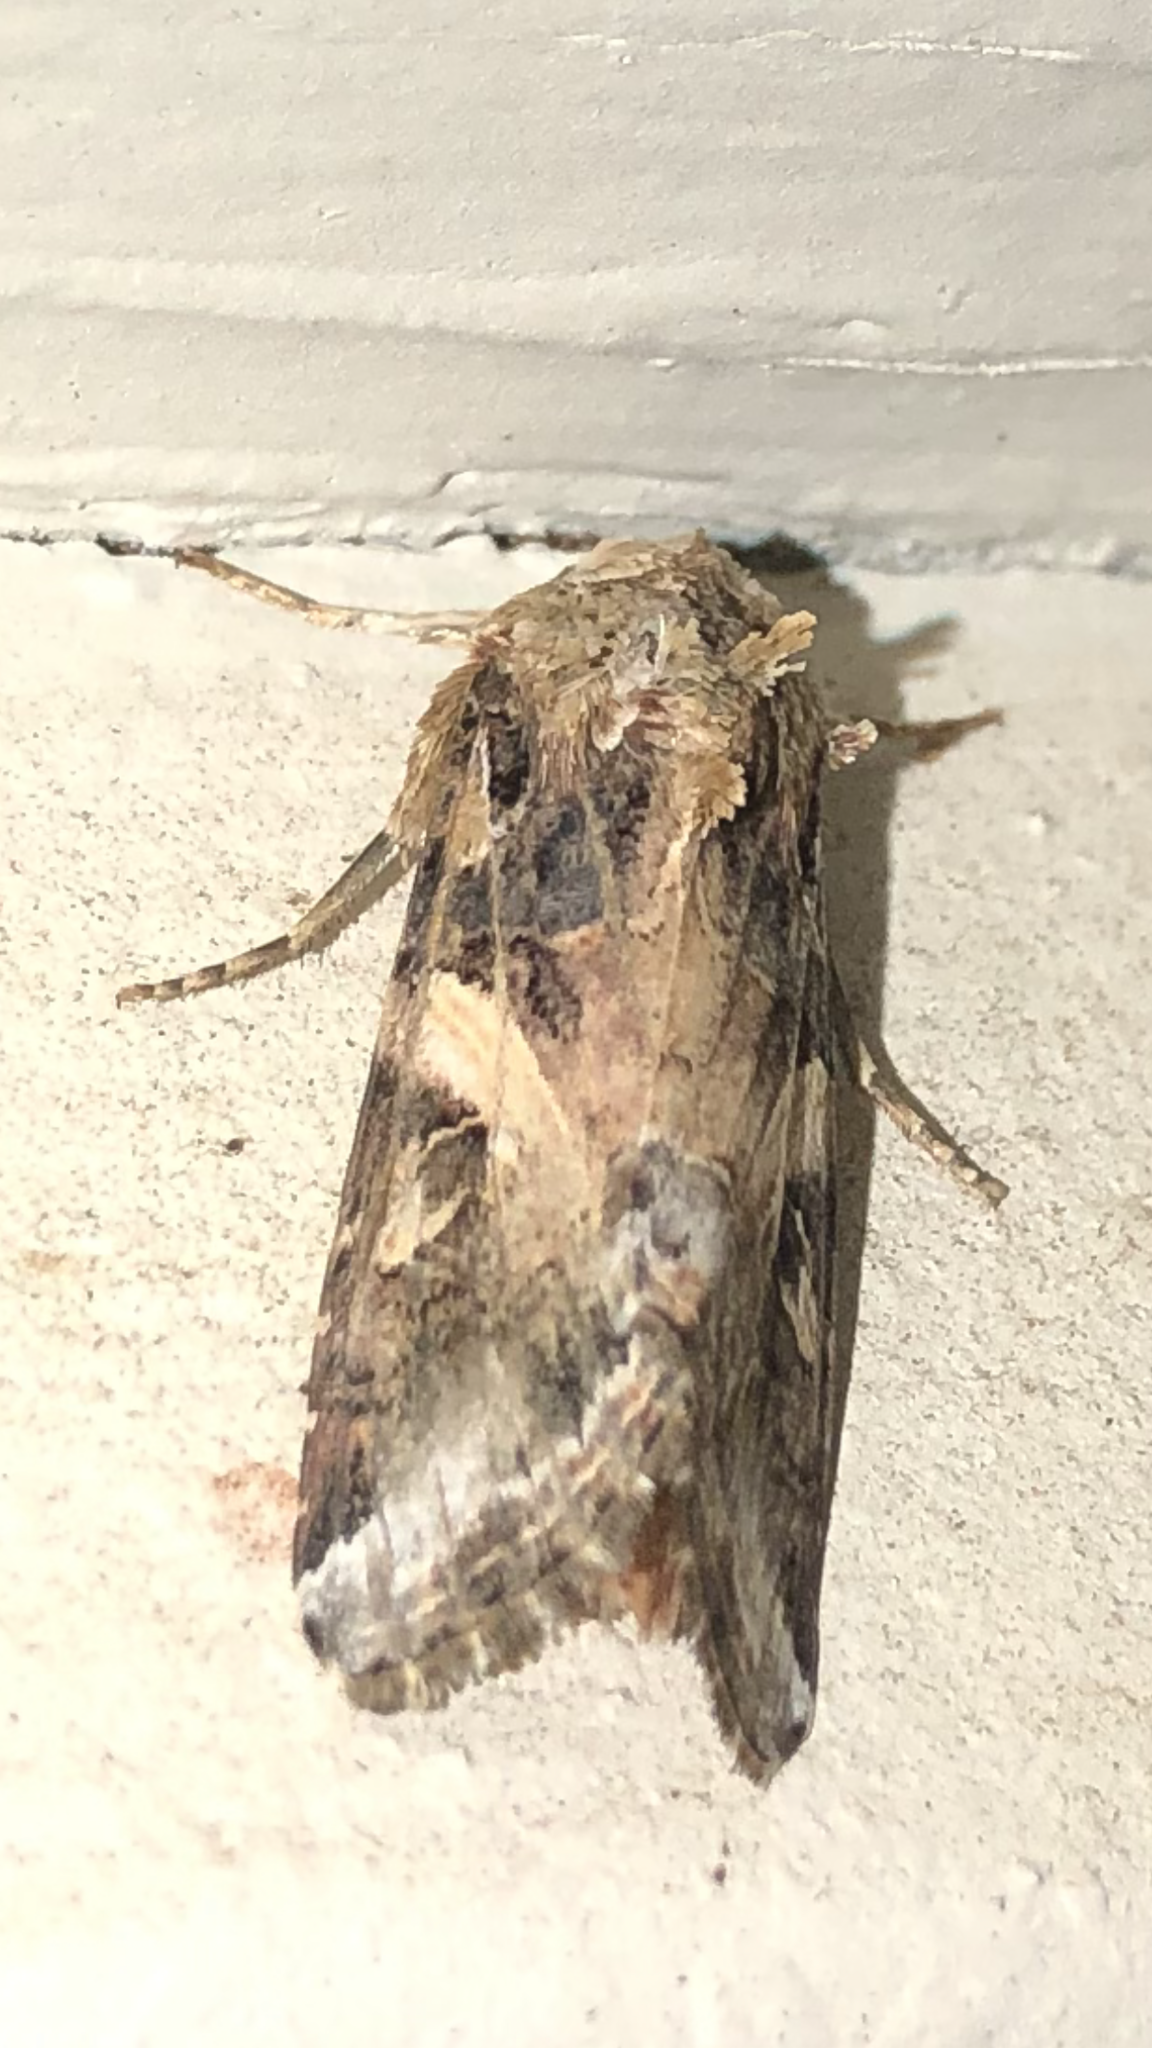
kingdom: Animalia
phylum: Arthropoda
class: Insecta
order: Lepidoptera
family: Noctuidae
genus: Spodoptera
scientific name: Spodoptera ornithogalli
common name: Yellow-striped armyworm
